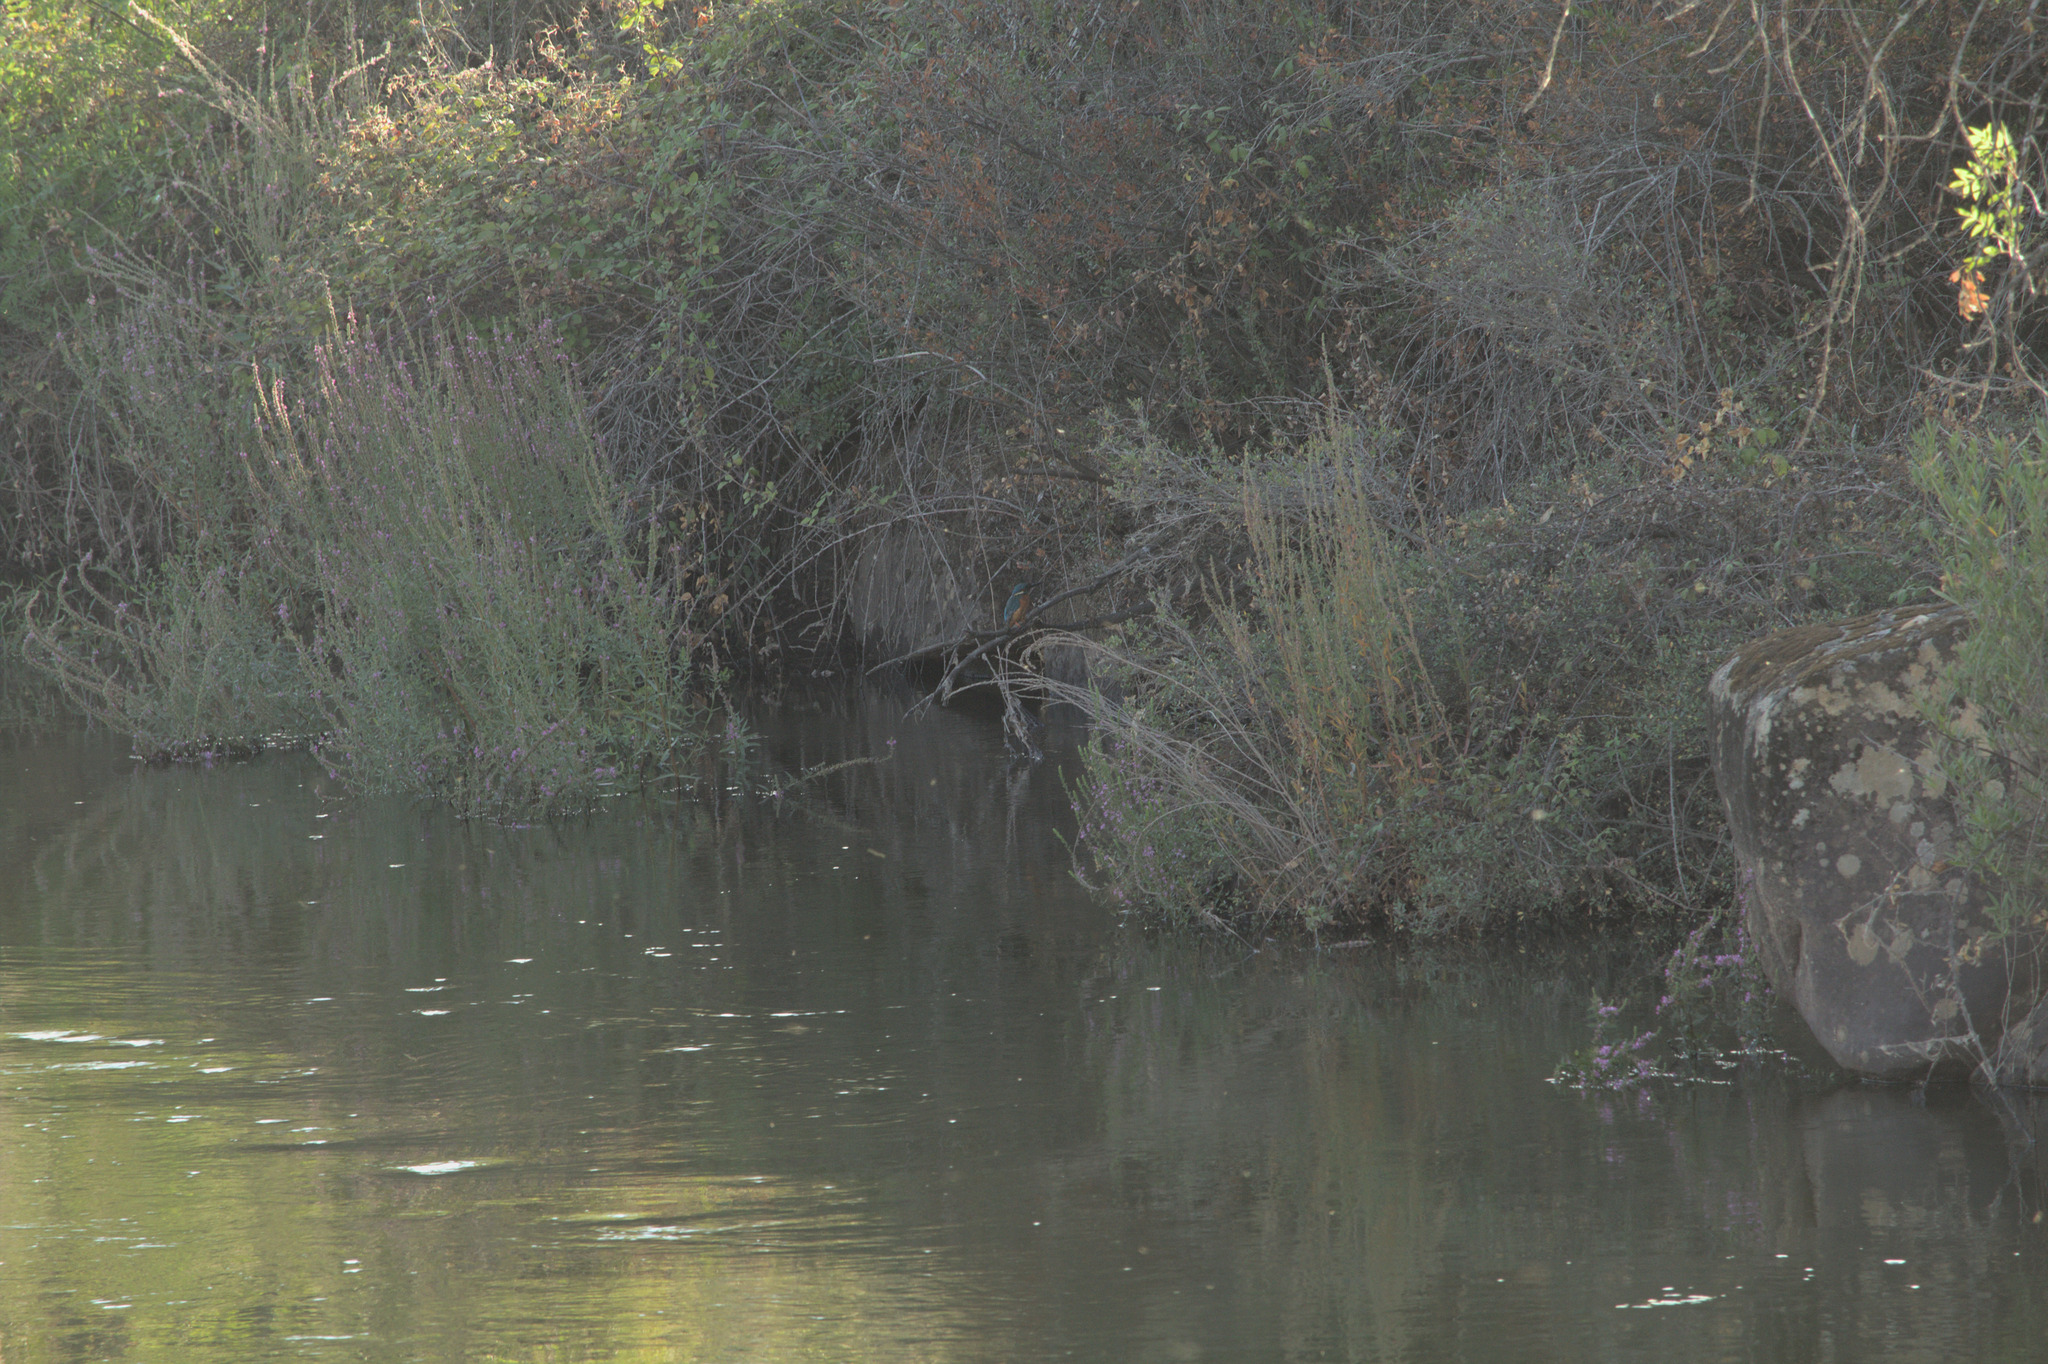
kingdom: Animalia
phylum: Chordata
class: Aves
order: Coraciiformes
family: Alcedinidae
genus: Alcedo
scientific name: Alcedo atthis
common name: Common kingfisher
